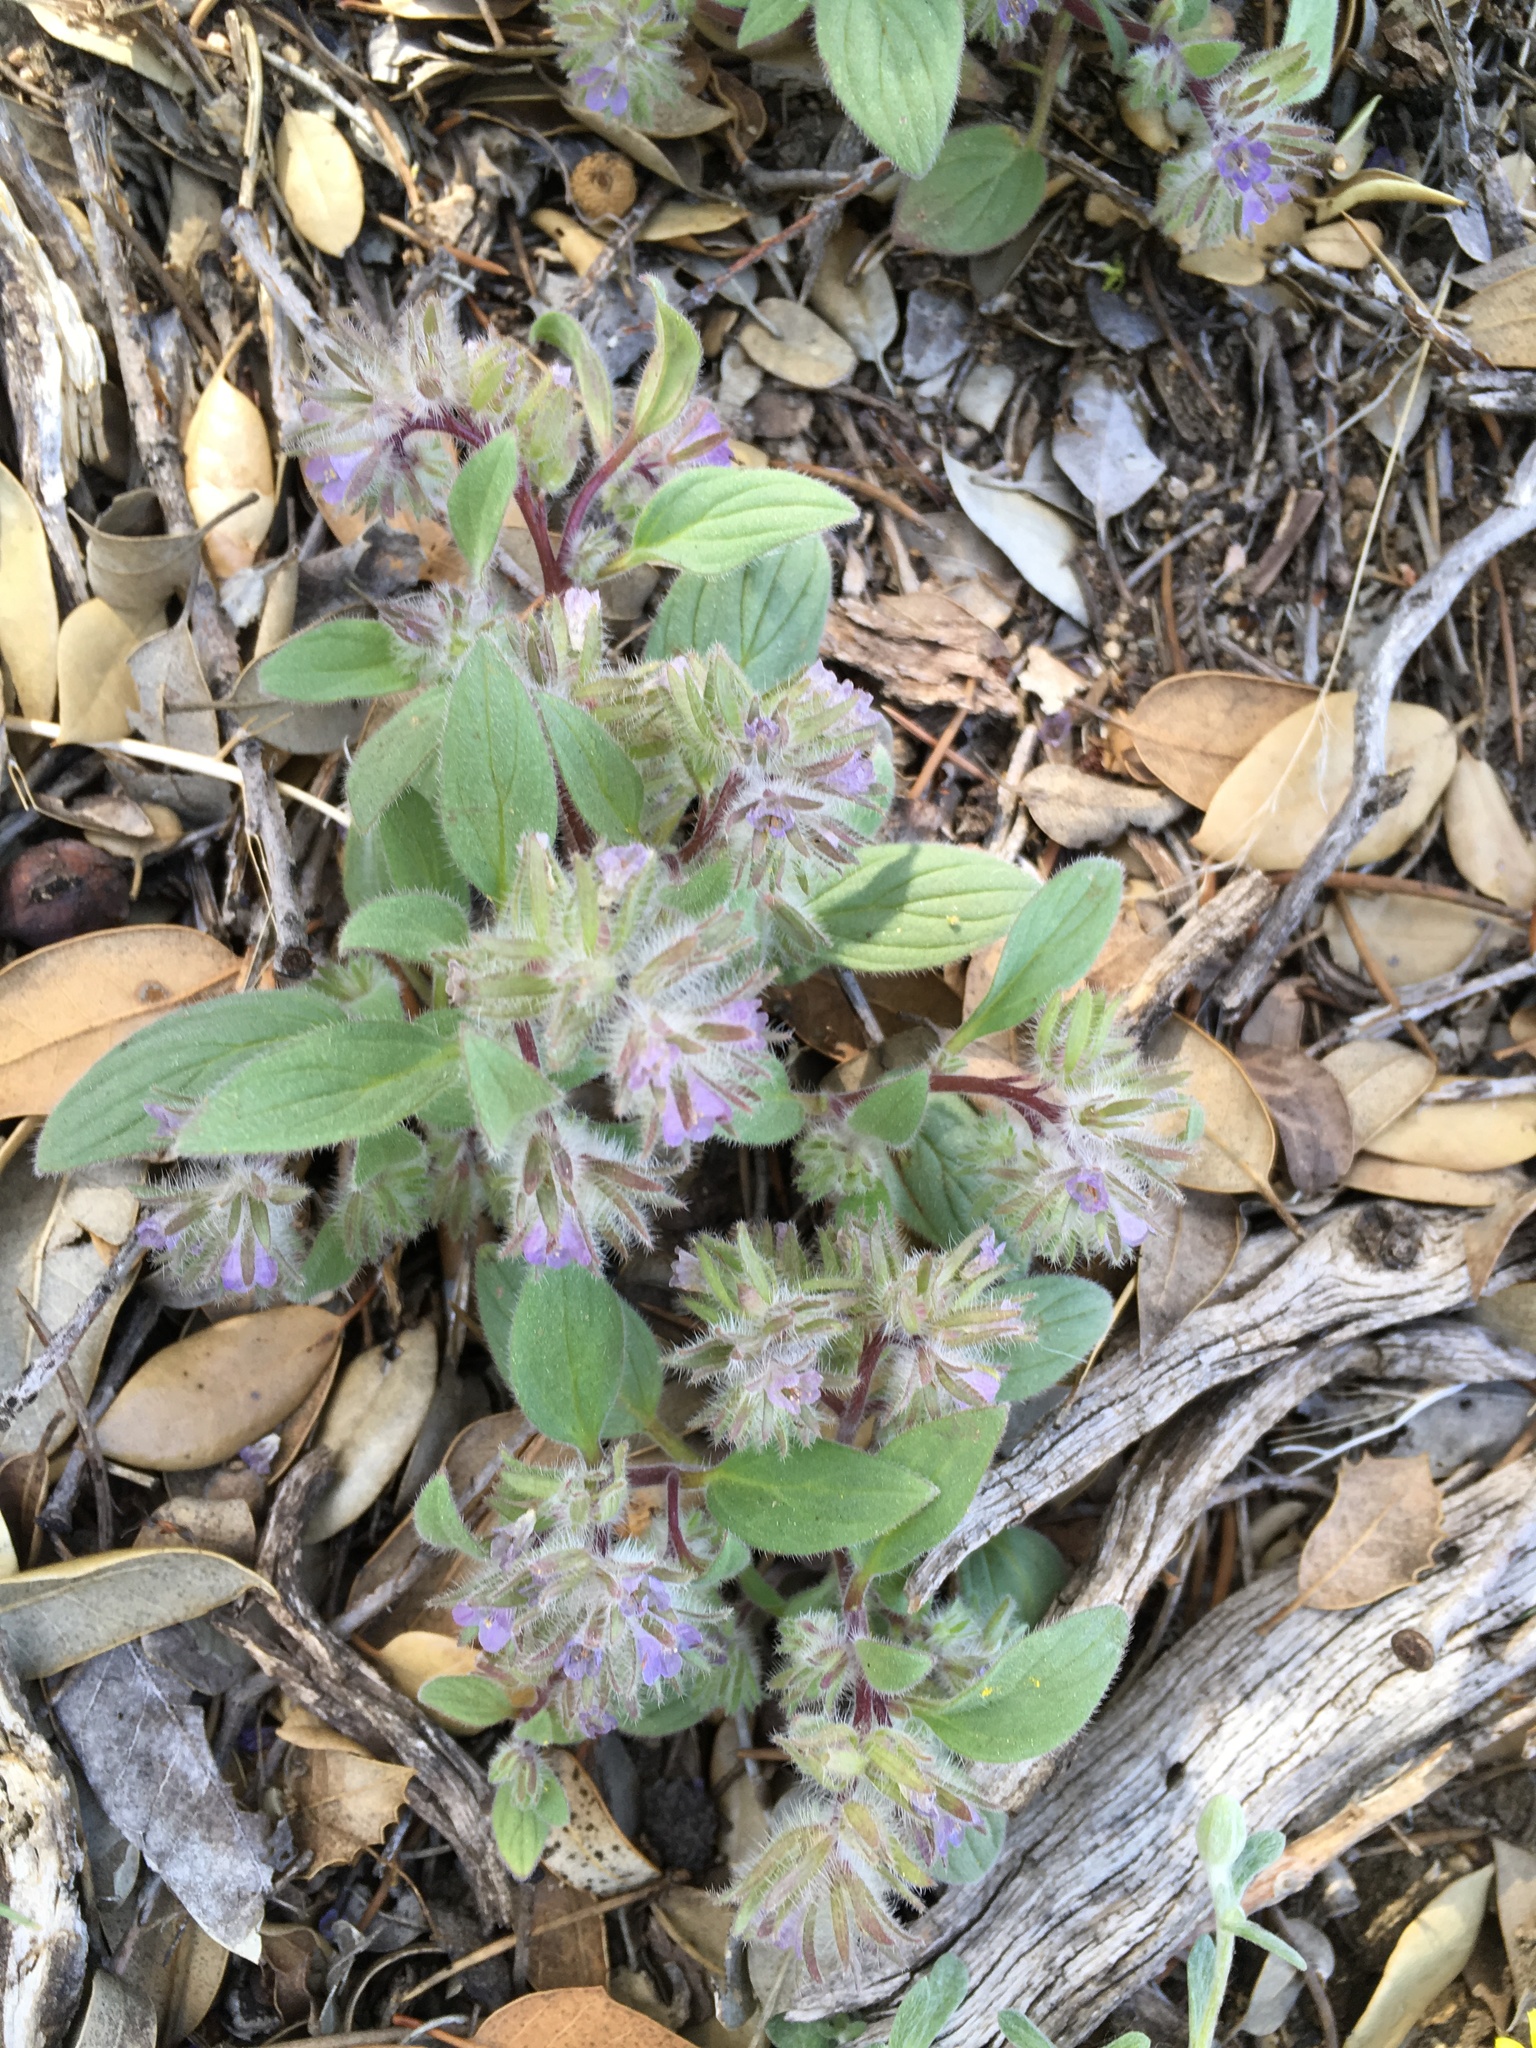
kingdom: Plantae
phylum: Tracheophyta
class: Magnoliopsida
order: Boraginales
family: Hydrophyllaceae
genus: Phacelia
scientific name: Phacelia novenmillensis
